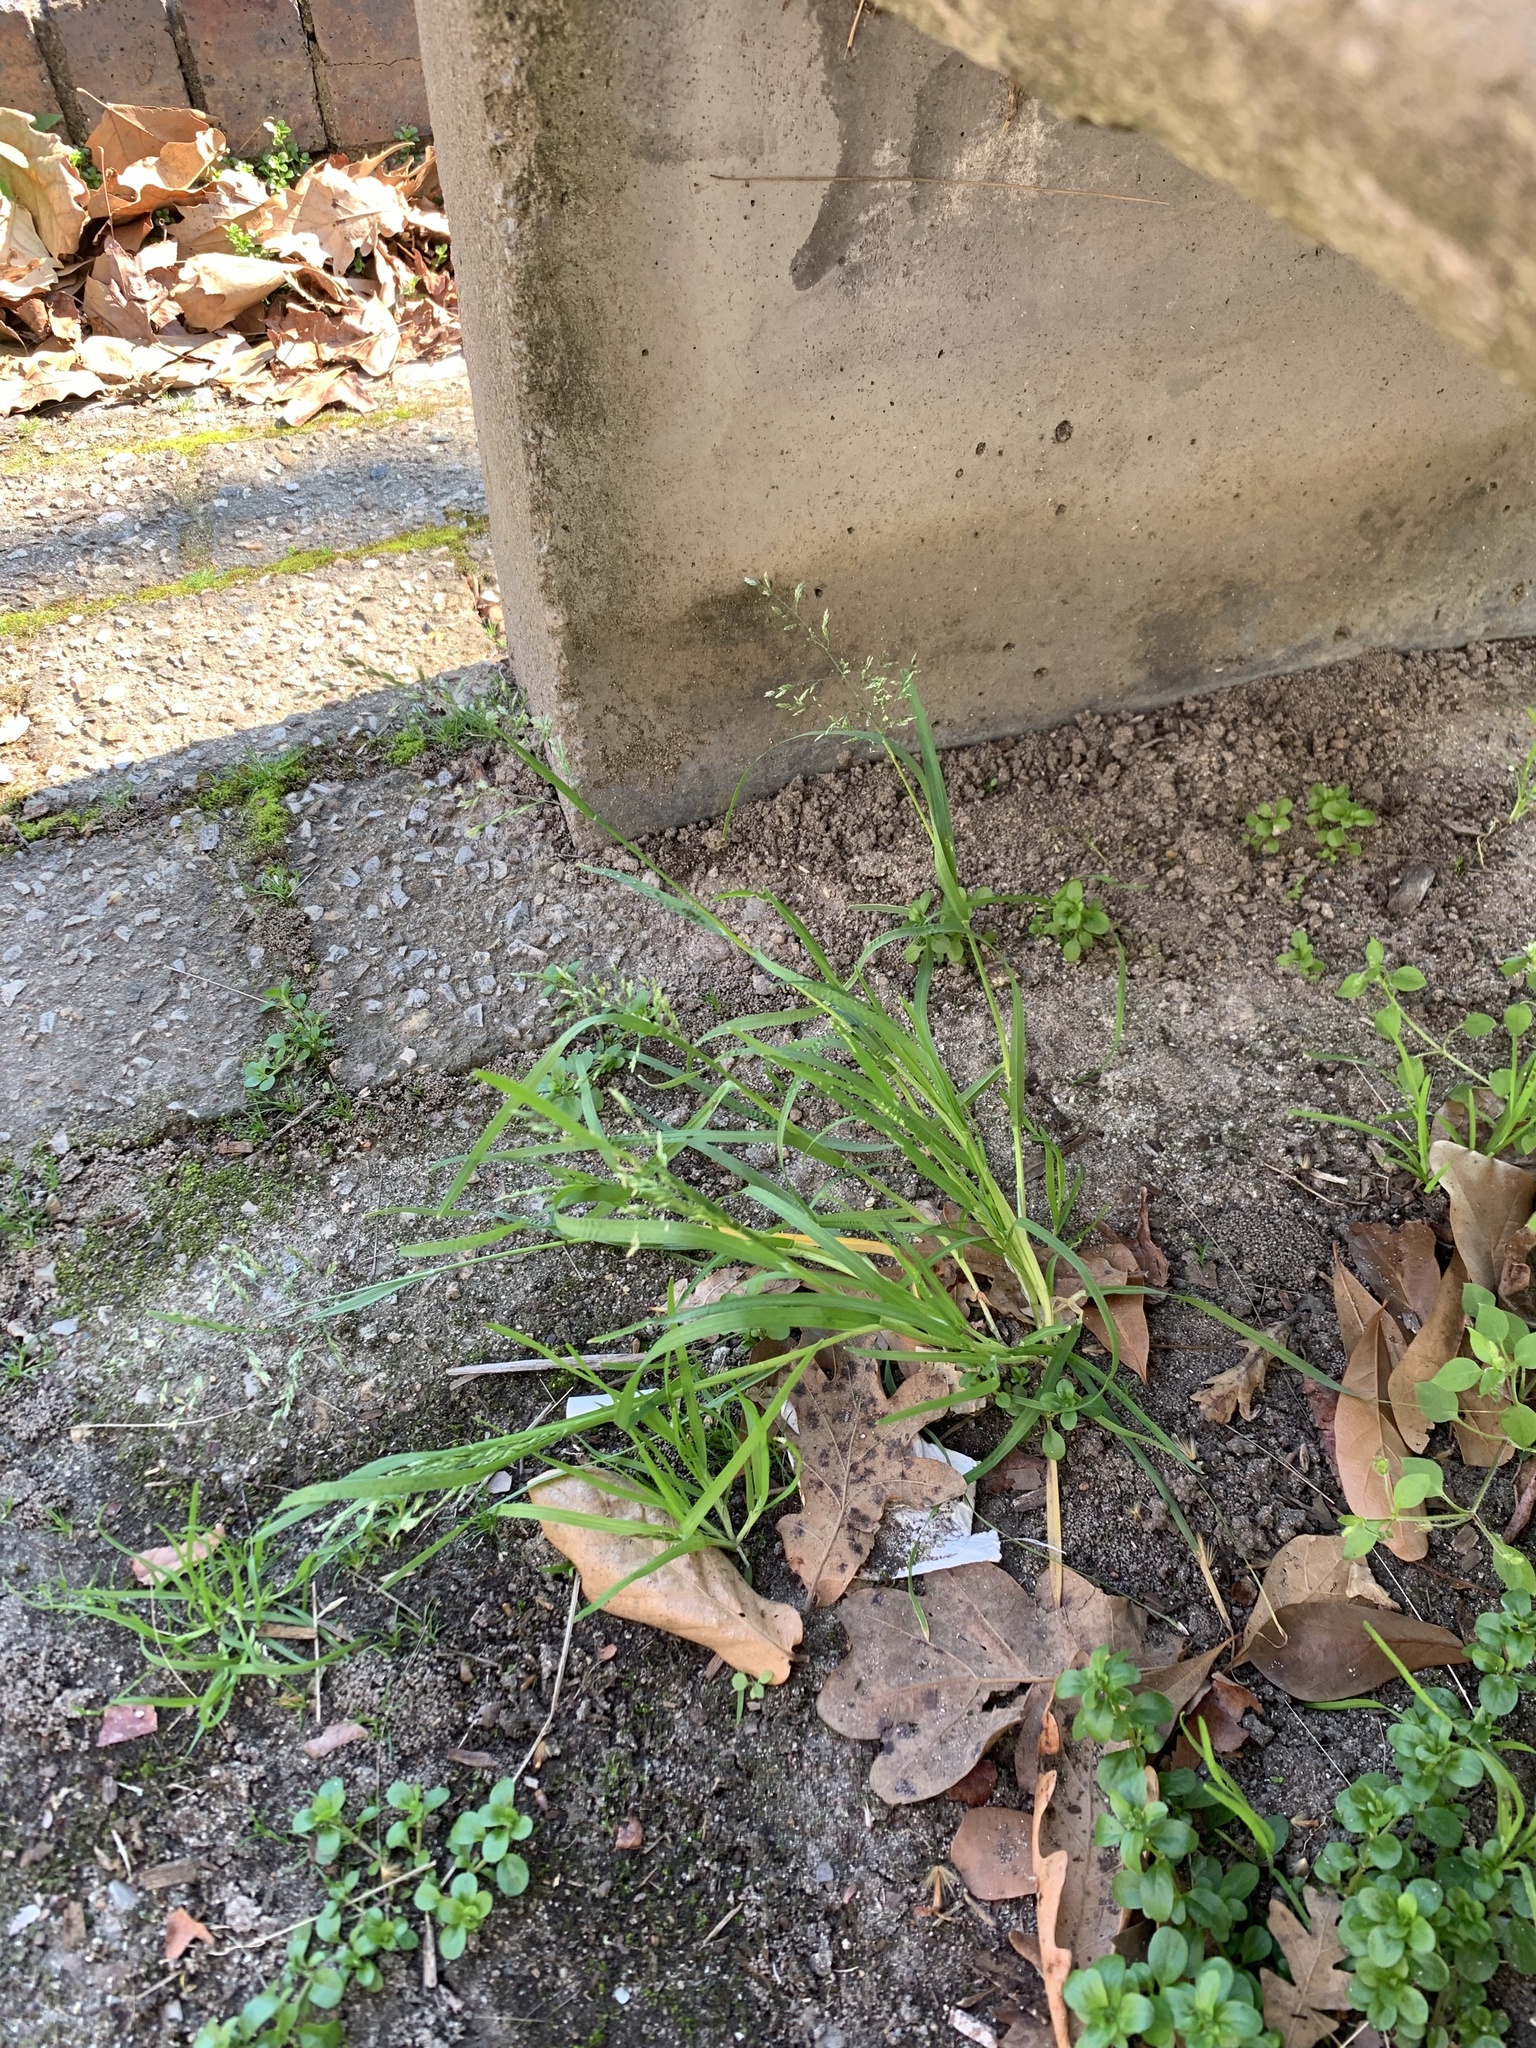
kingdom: Plantae
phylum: Tracheophyta
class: Liliopsida
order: Poales
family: Poaceae
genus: Poa
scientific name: Poa annua
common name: Annual bluegrass
